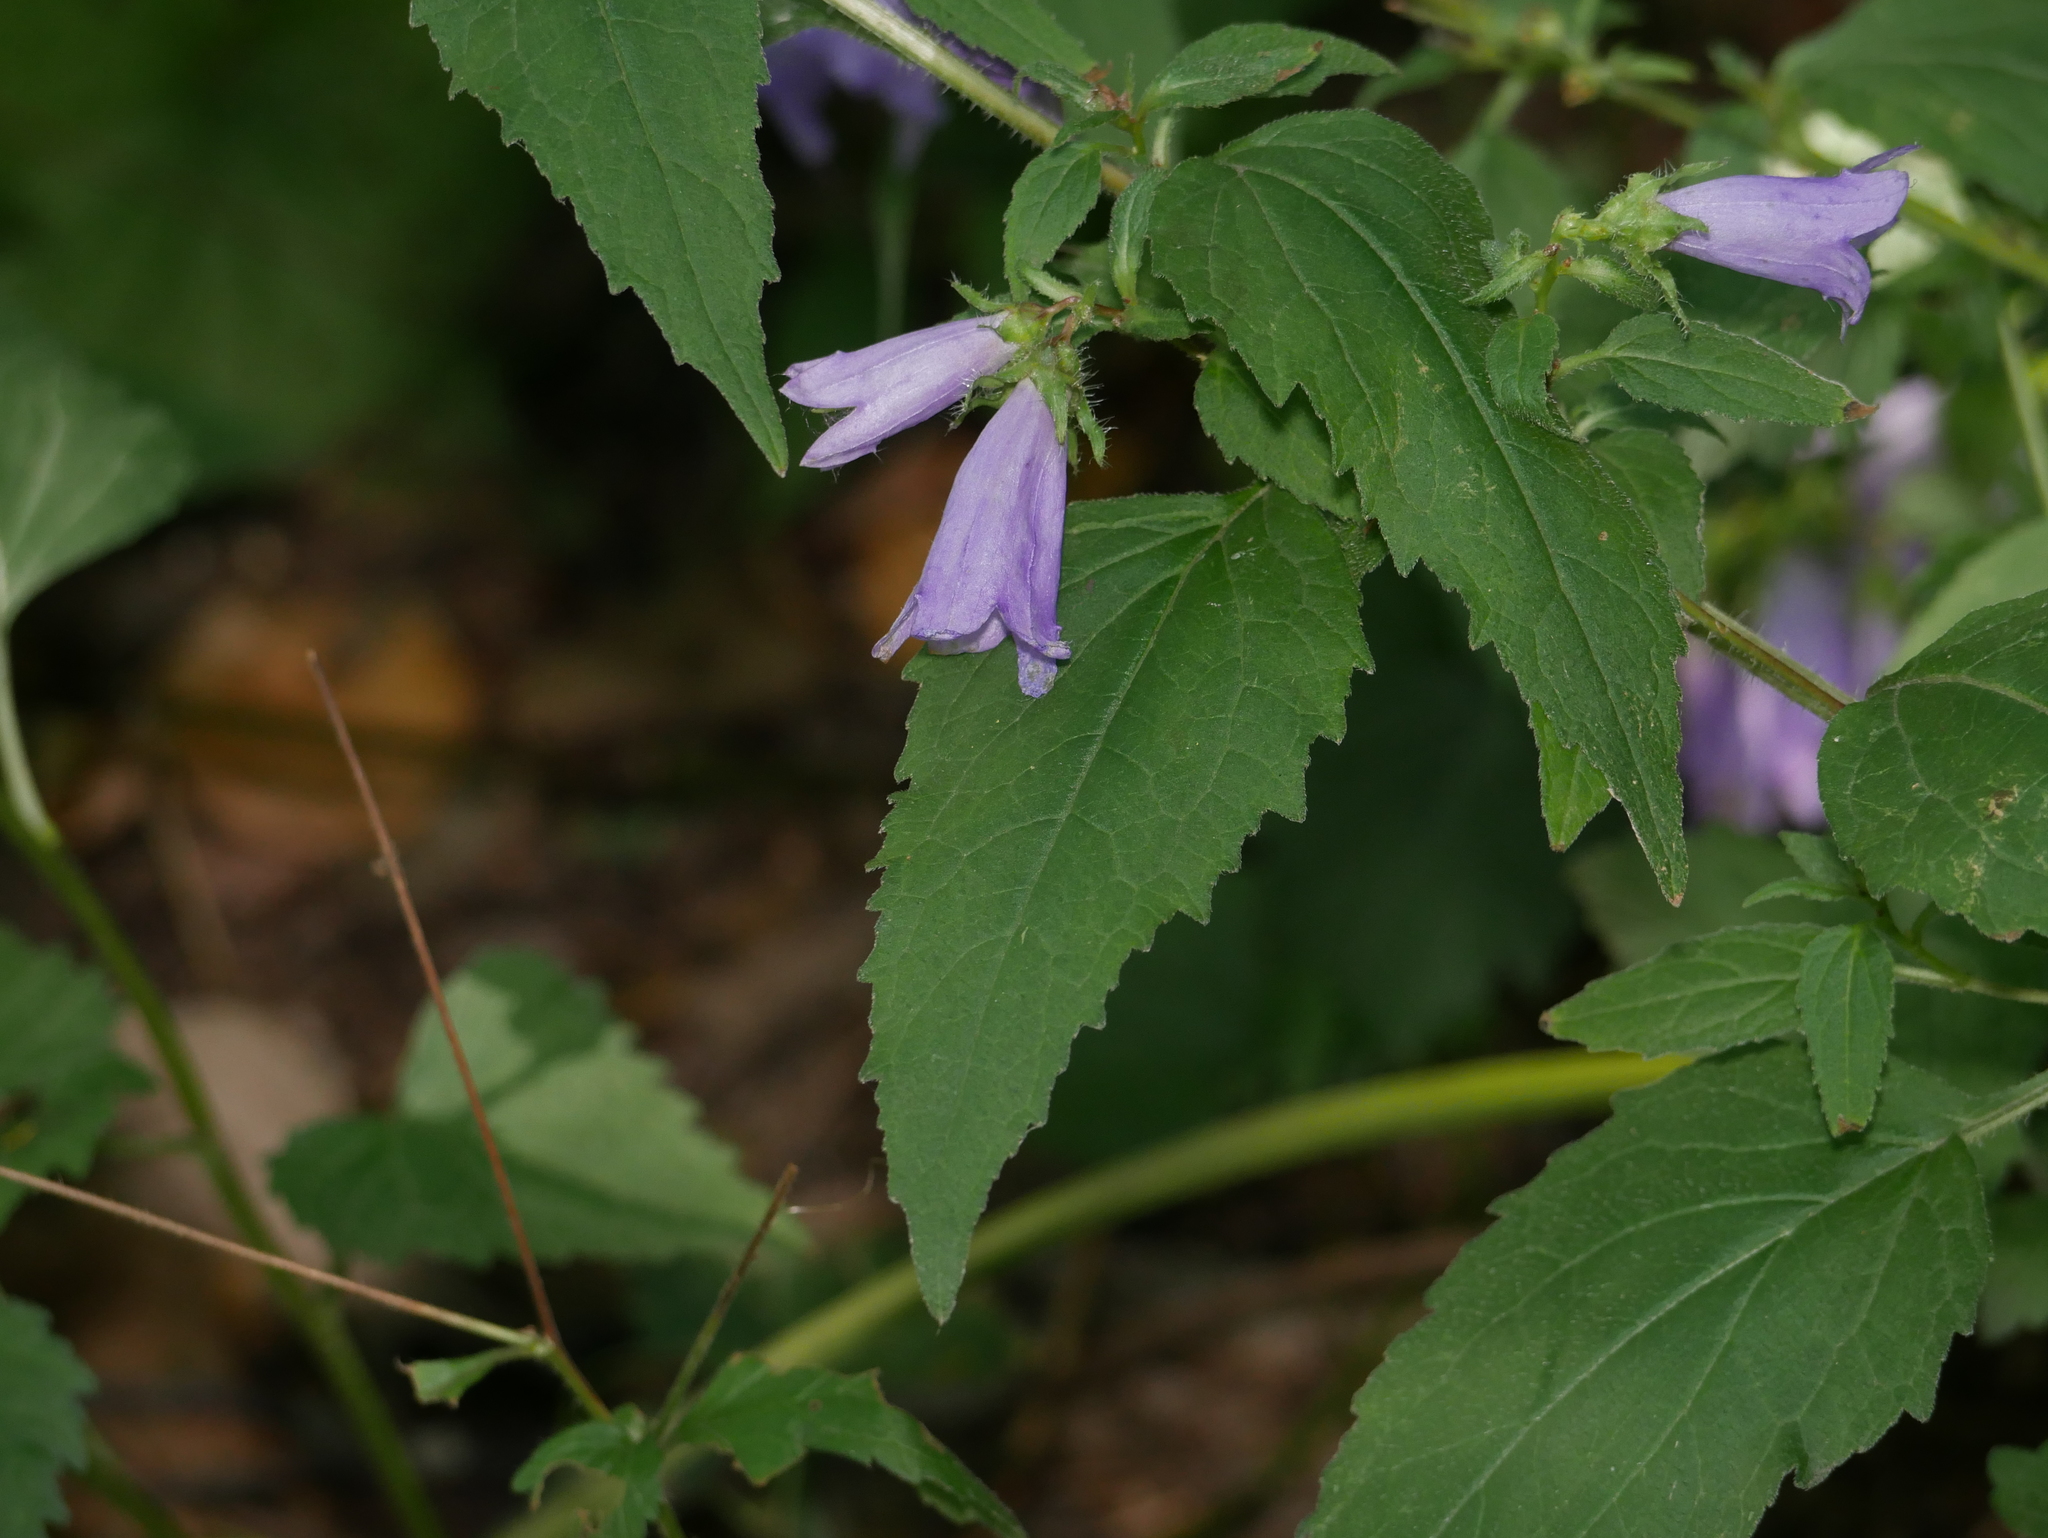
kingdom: Plantae
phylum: Tracheophyta
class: Magnoliopsida
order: Asterales
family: Campanulaceae
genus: Campanula
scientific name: Campanula trachelium
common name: Nettle-leaved bellflower
